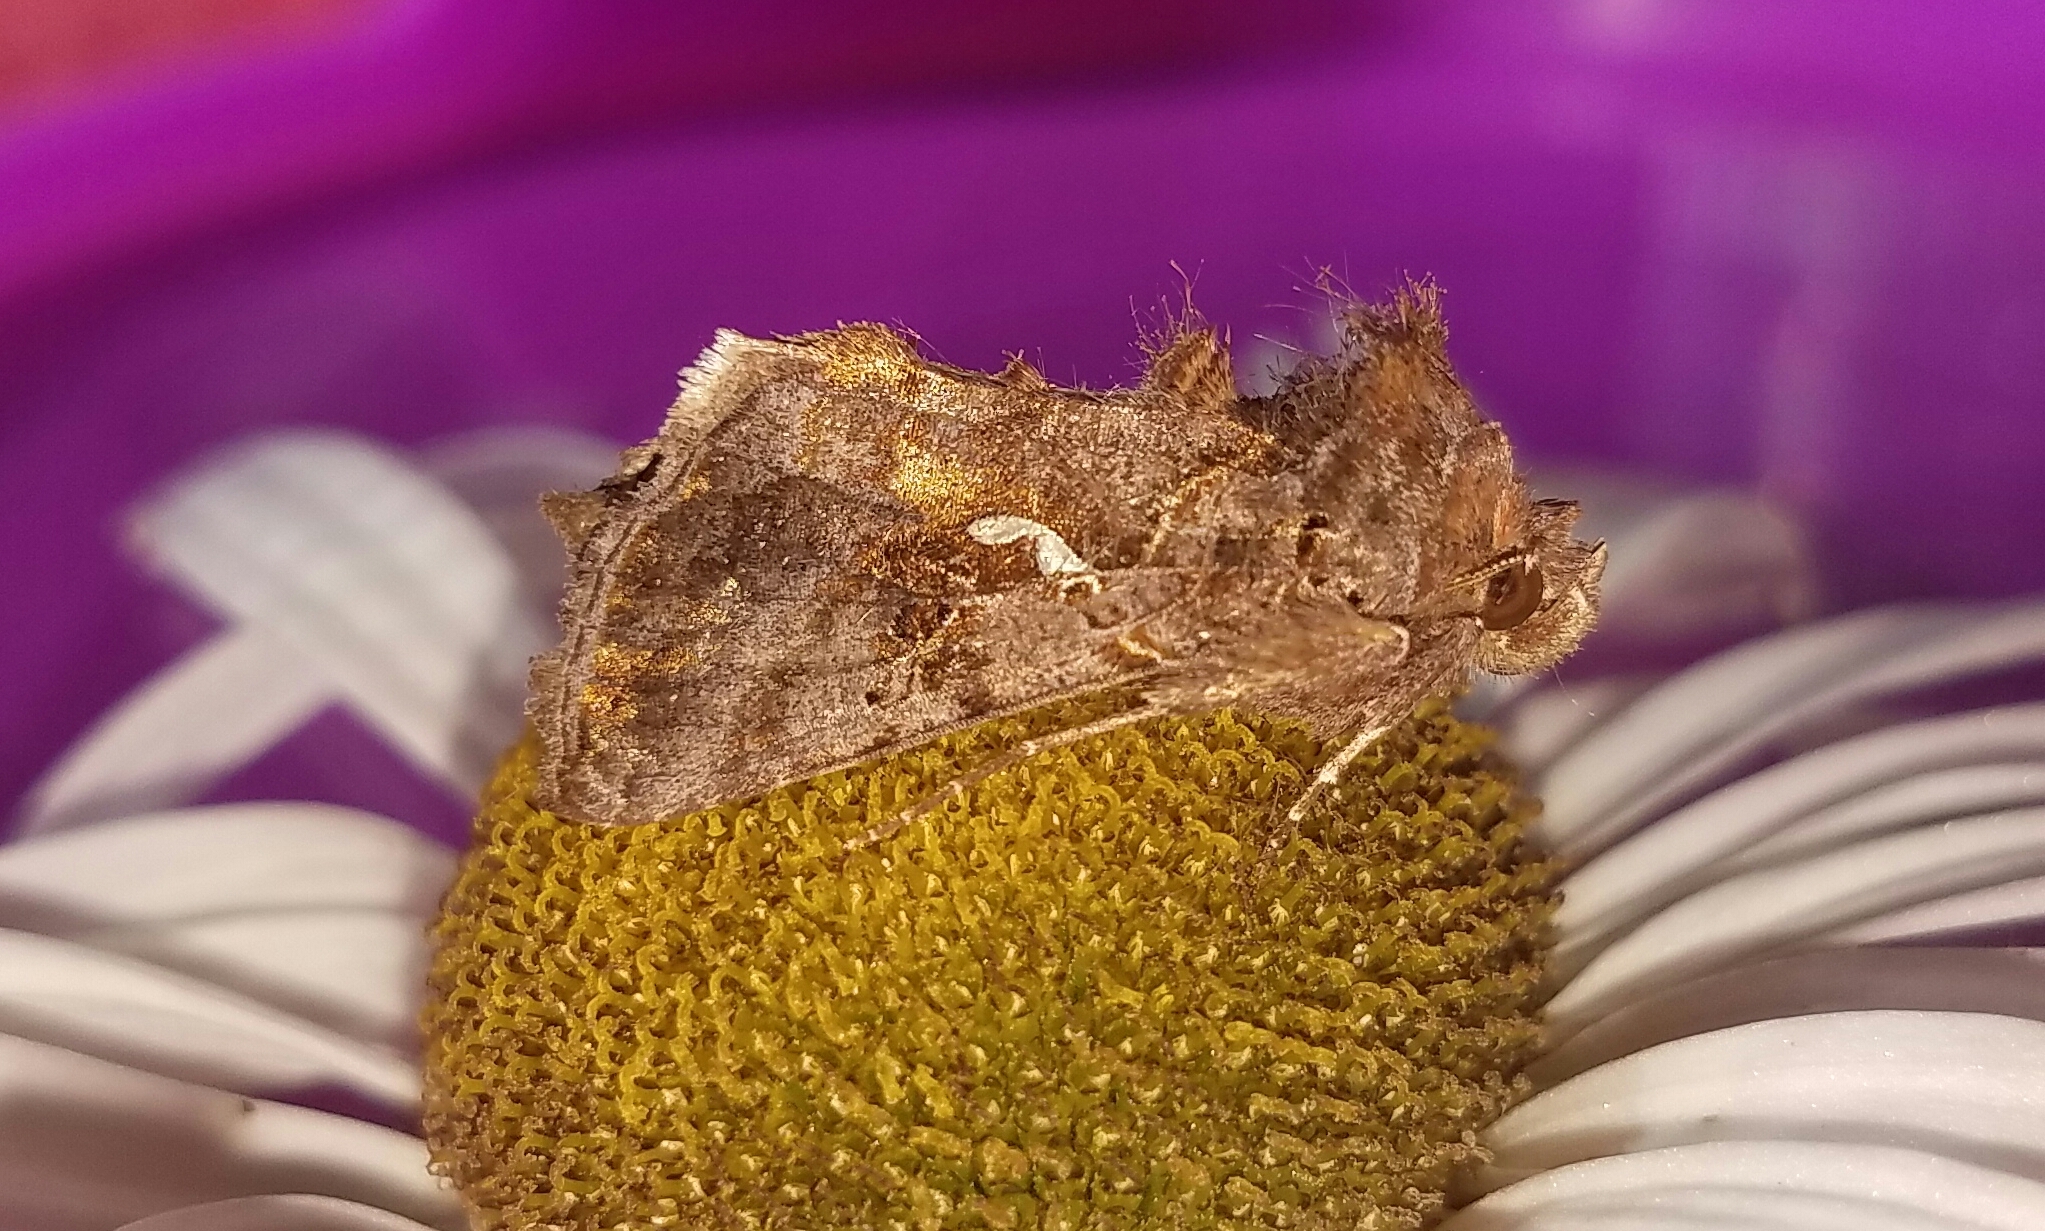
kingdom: Animalia
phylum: Arthropoda
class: Insecta
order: Lepidoptera
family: Noctuidae
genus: Autographa
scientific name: Autographa precationis
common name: Common looper moth
